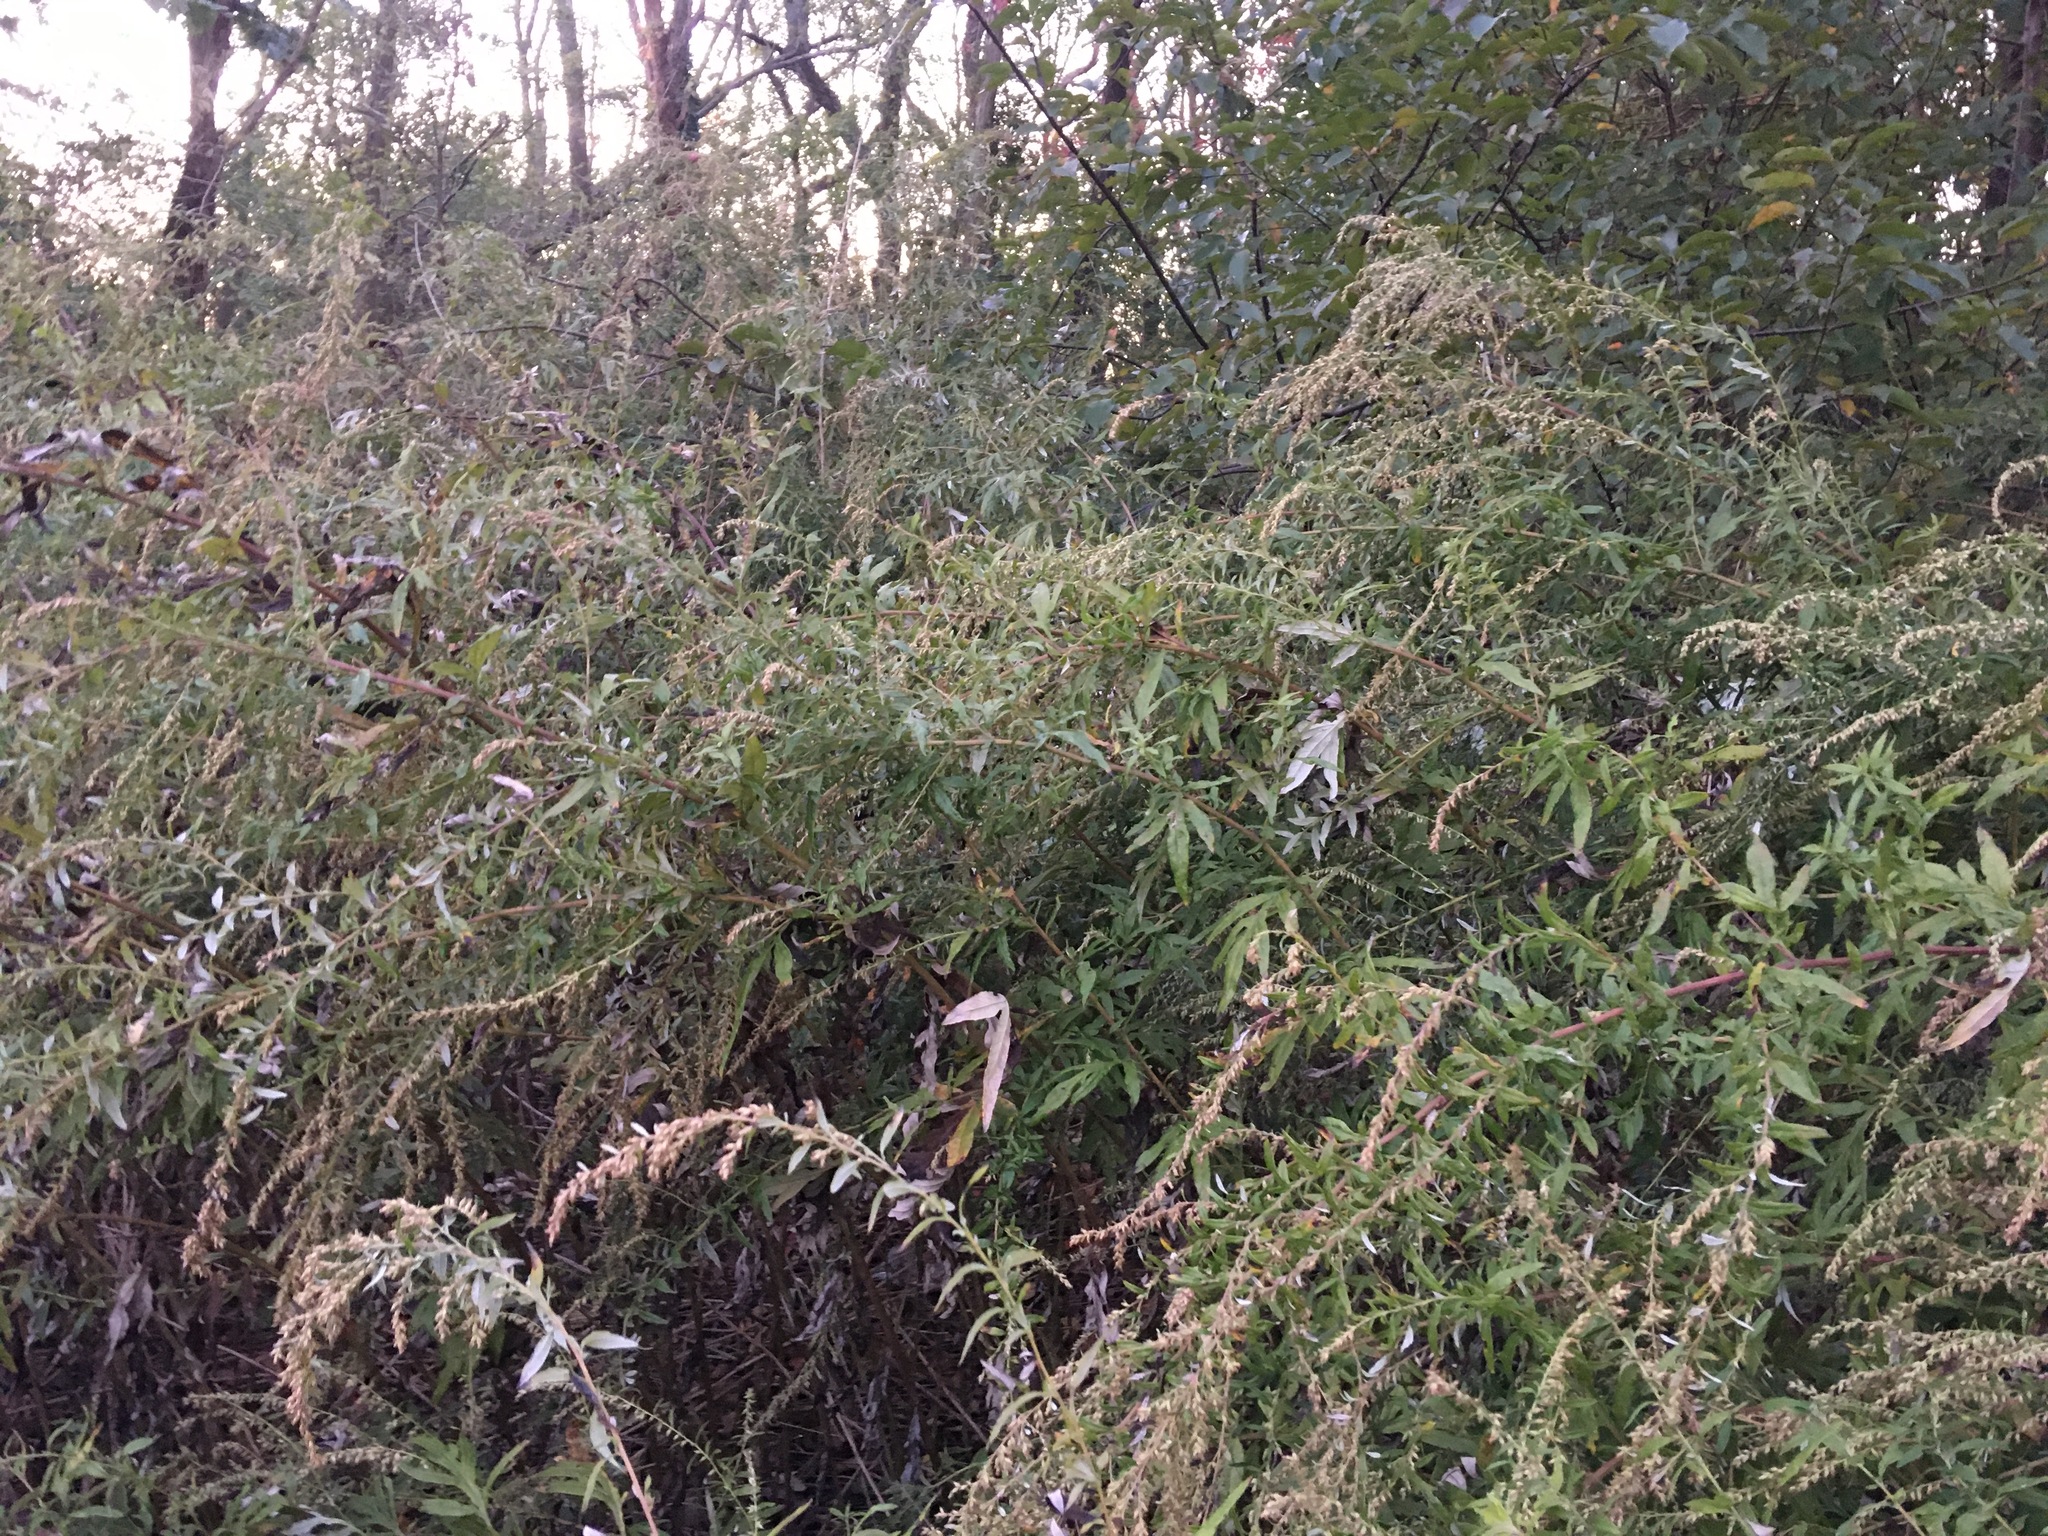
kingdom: Plantae
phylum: Tracheophyta
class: Magnoliopsida
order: Asterales
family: Asteraceae
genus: Artemisia
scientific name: Artemisia vulgaris
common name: Mugwort
